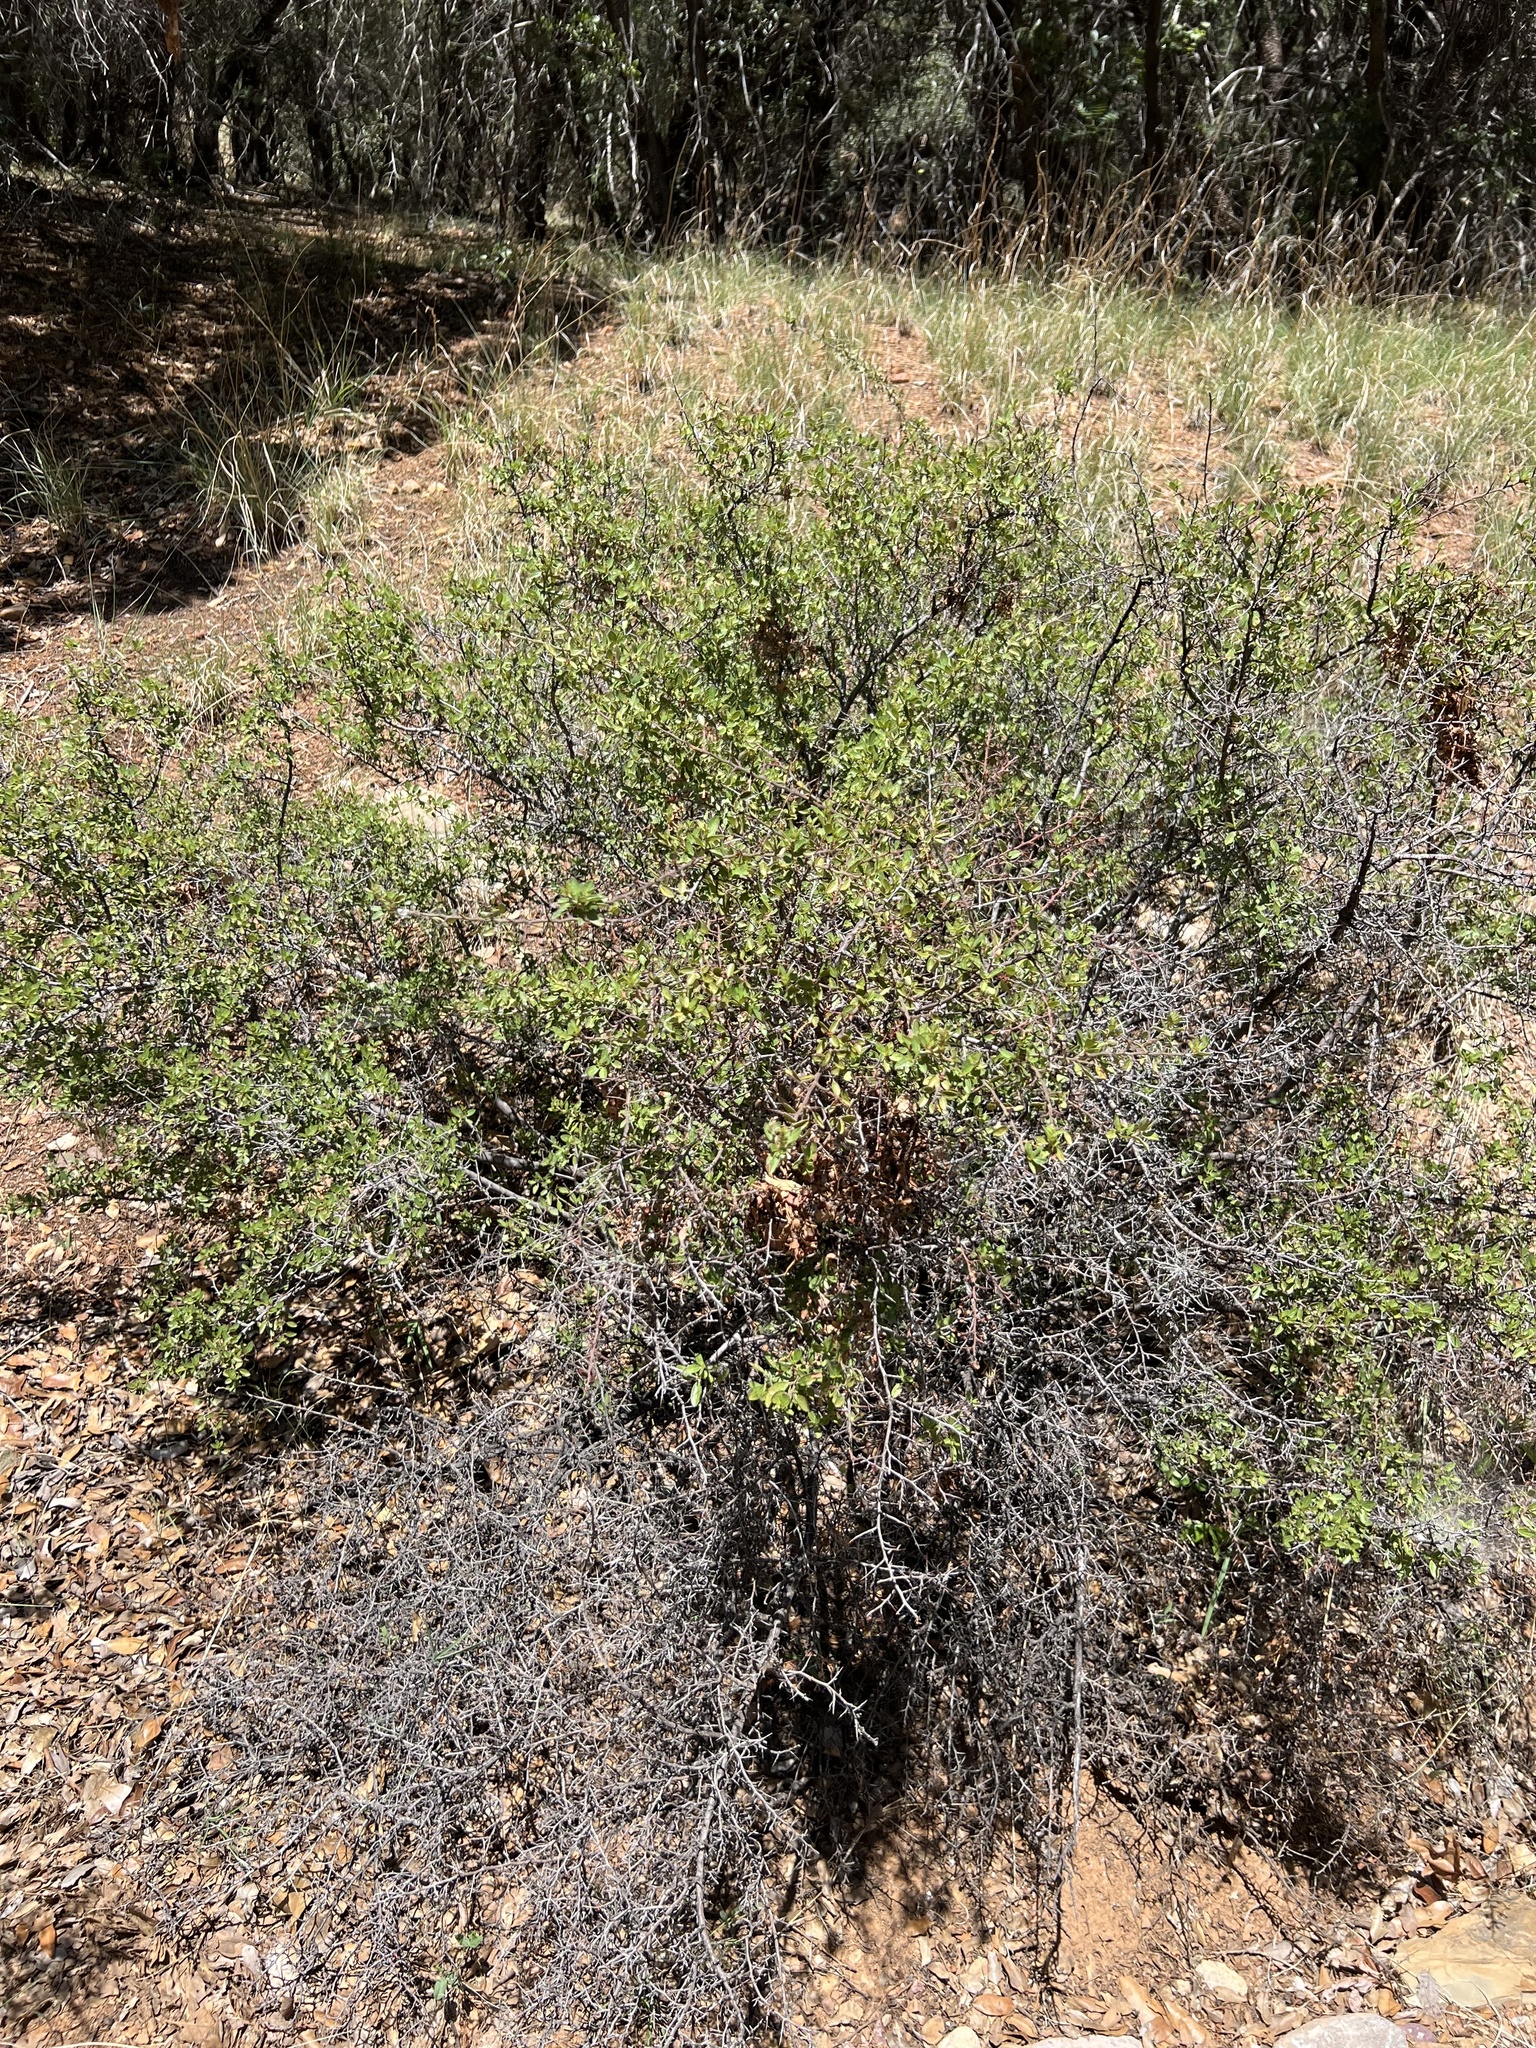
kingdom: Plantae
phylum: Tracheophyta
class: Magnoliopsida
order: Rosales
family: Rhamnaceae
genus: Ceanothus
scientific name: Ceanothus fendleri
